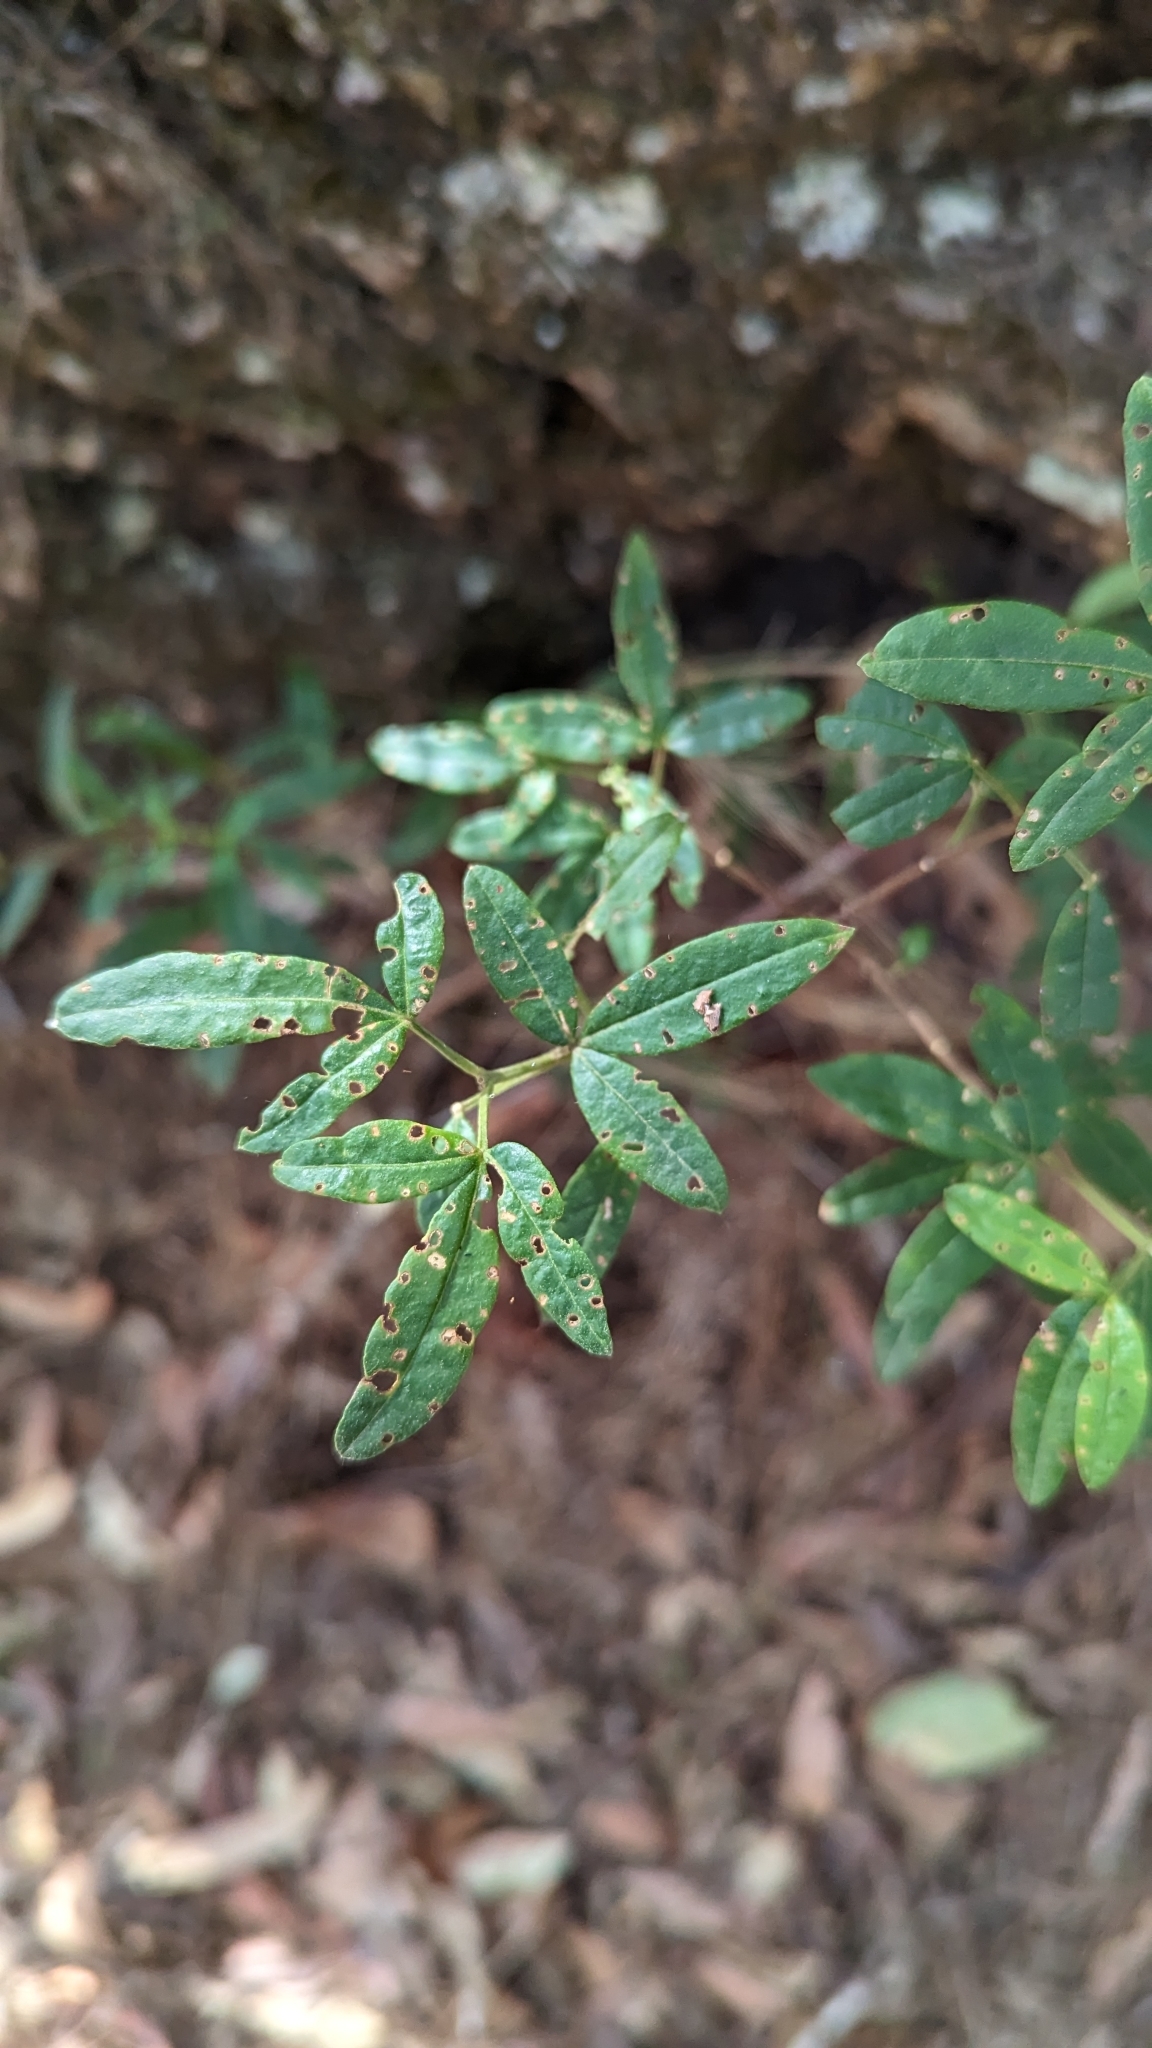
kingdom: Plantae
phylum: Tracheophyta
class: Magnoliopsida
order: Sapindales
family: Rutaceae
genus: Zieria
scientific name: Zieria smithii
